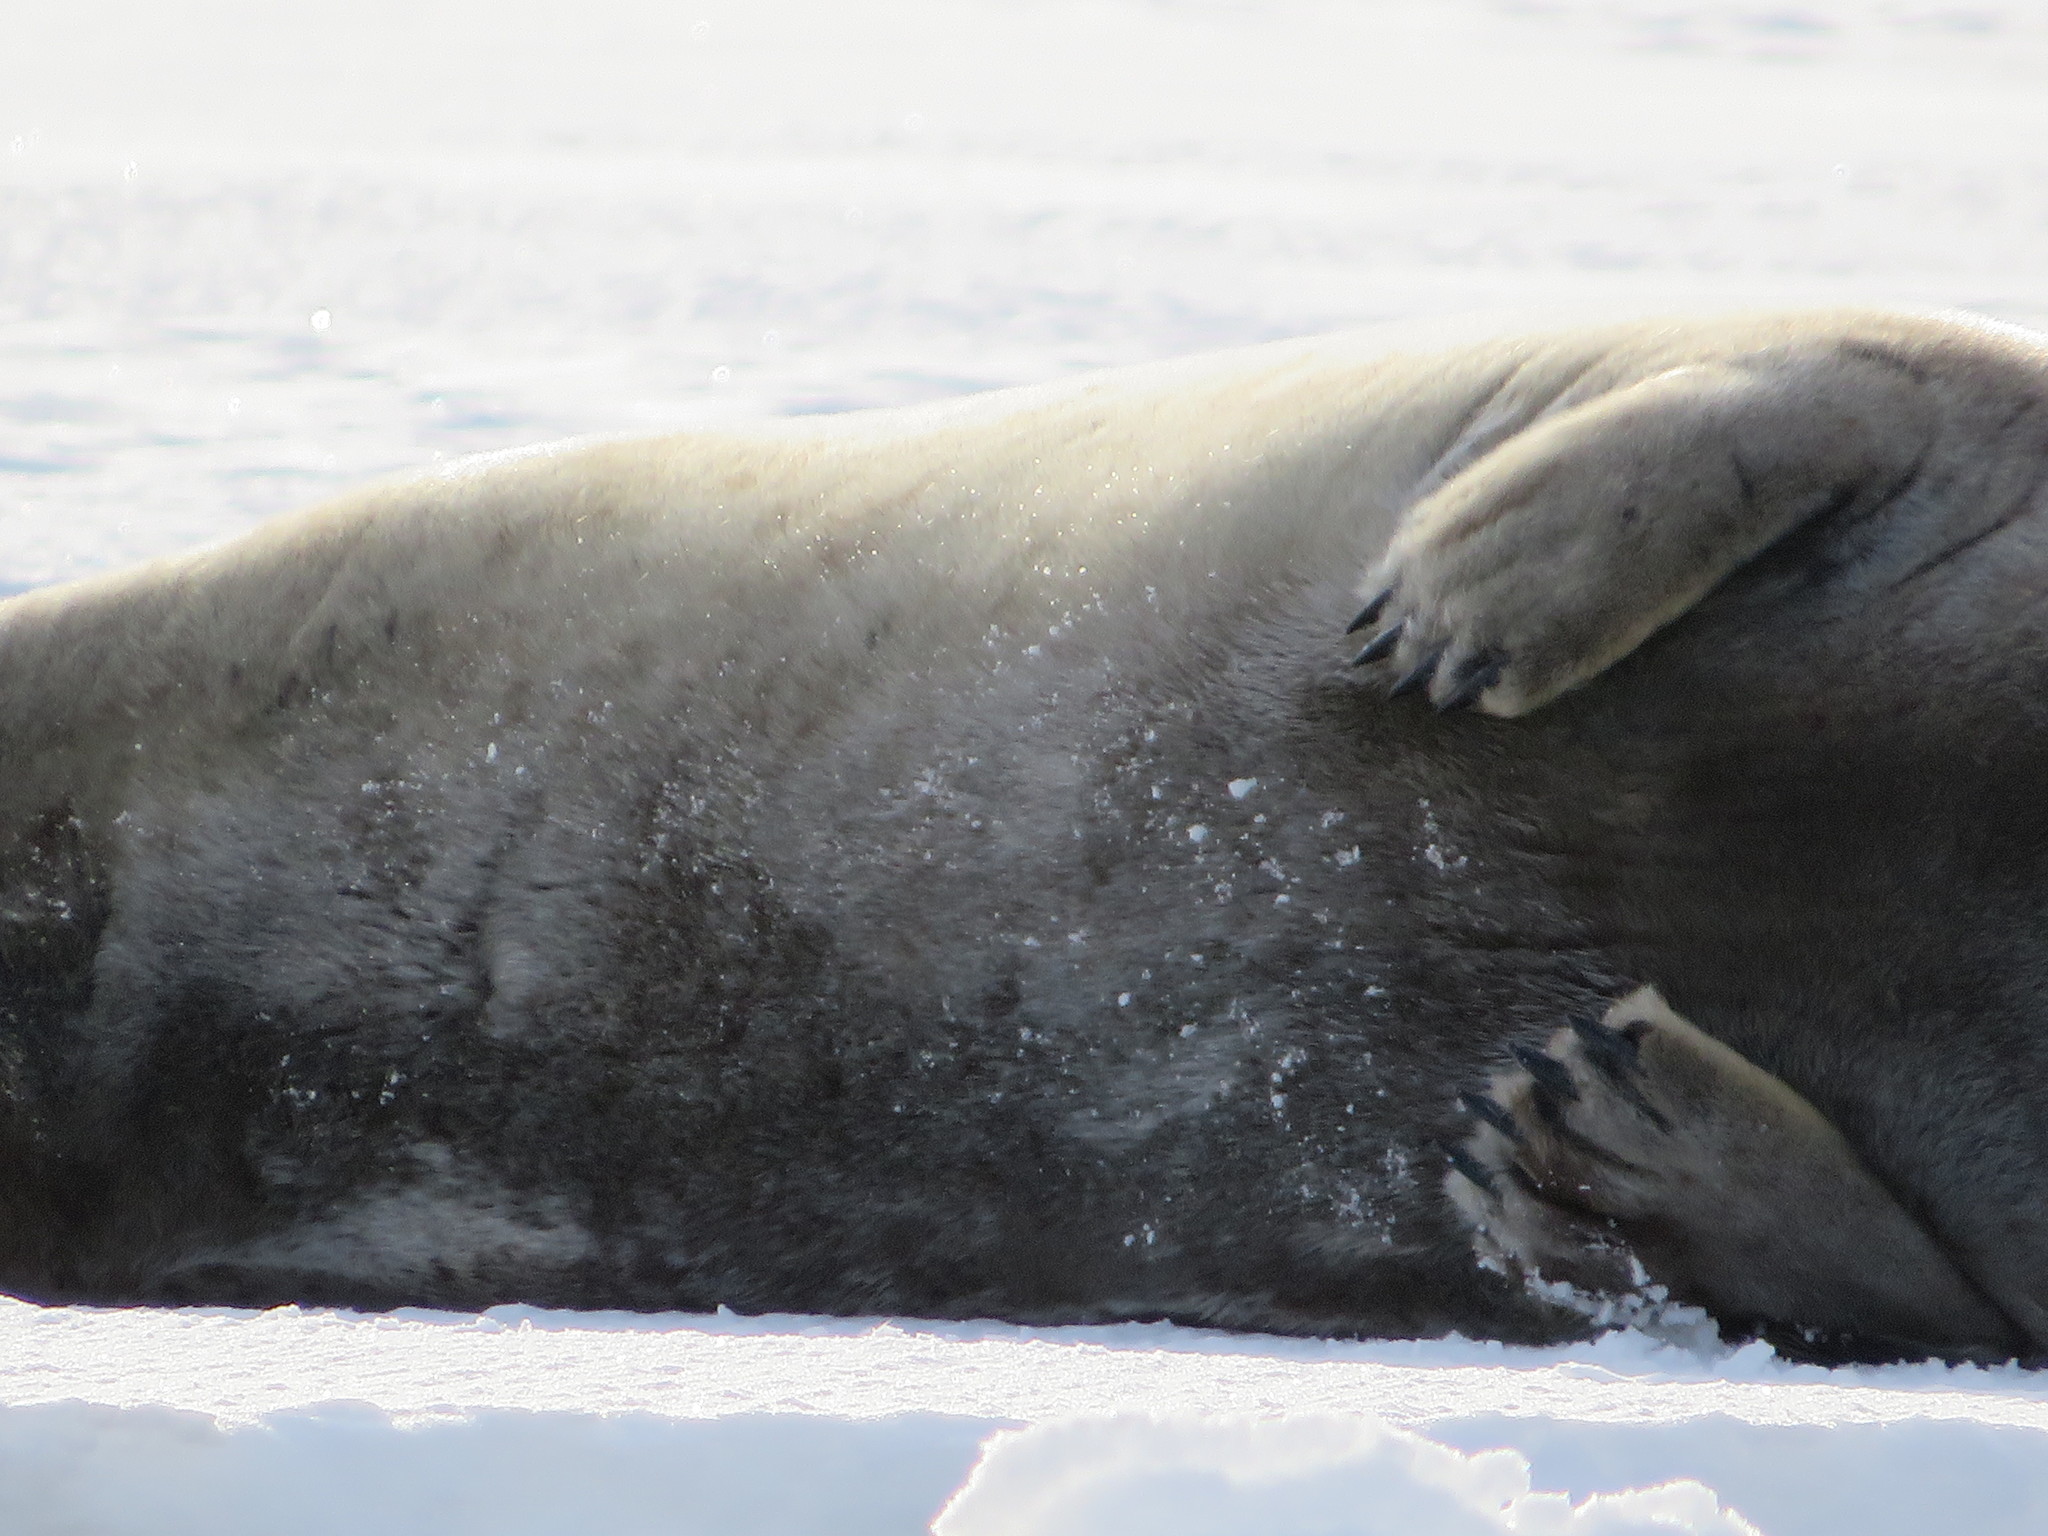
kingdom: Animalia
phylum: Chordata
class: Mammalia
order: Carnivora
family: Phocidae
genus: Erignathus
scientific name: Erignathus barbatus
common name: Bearded seal
